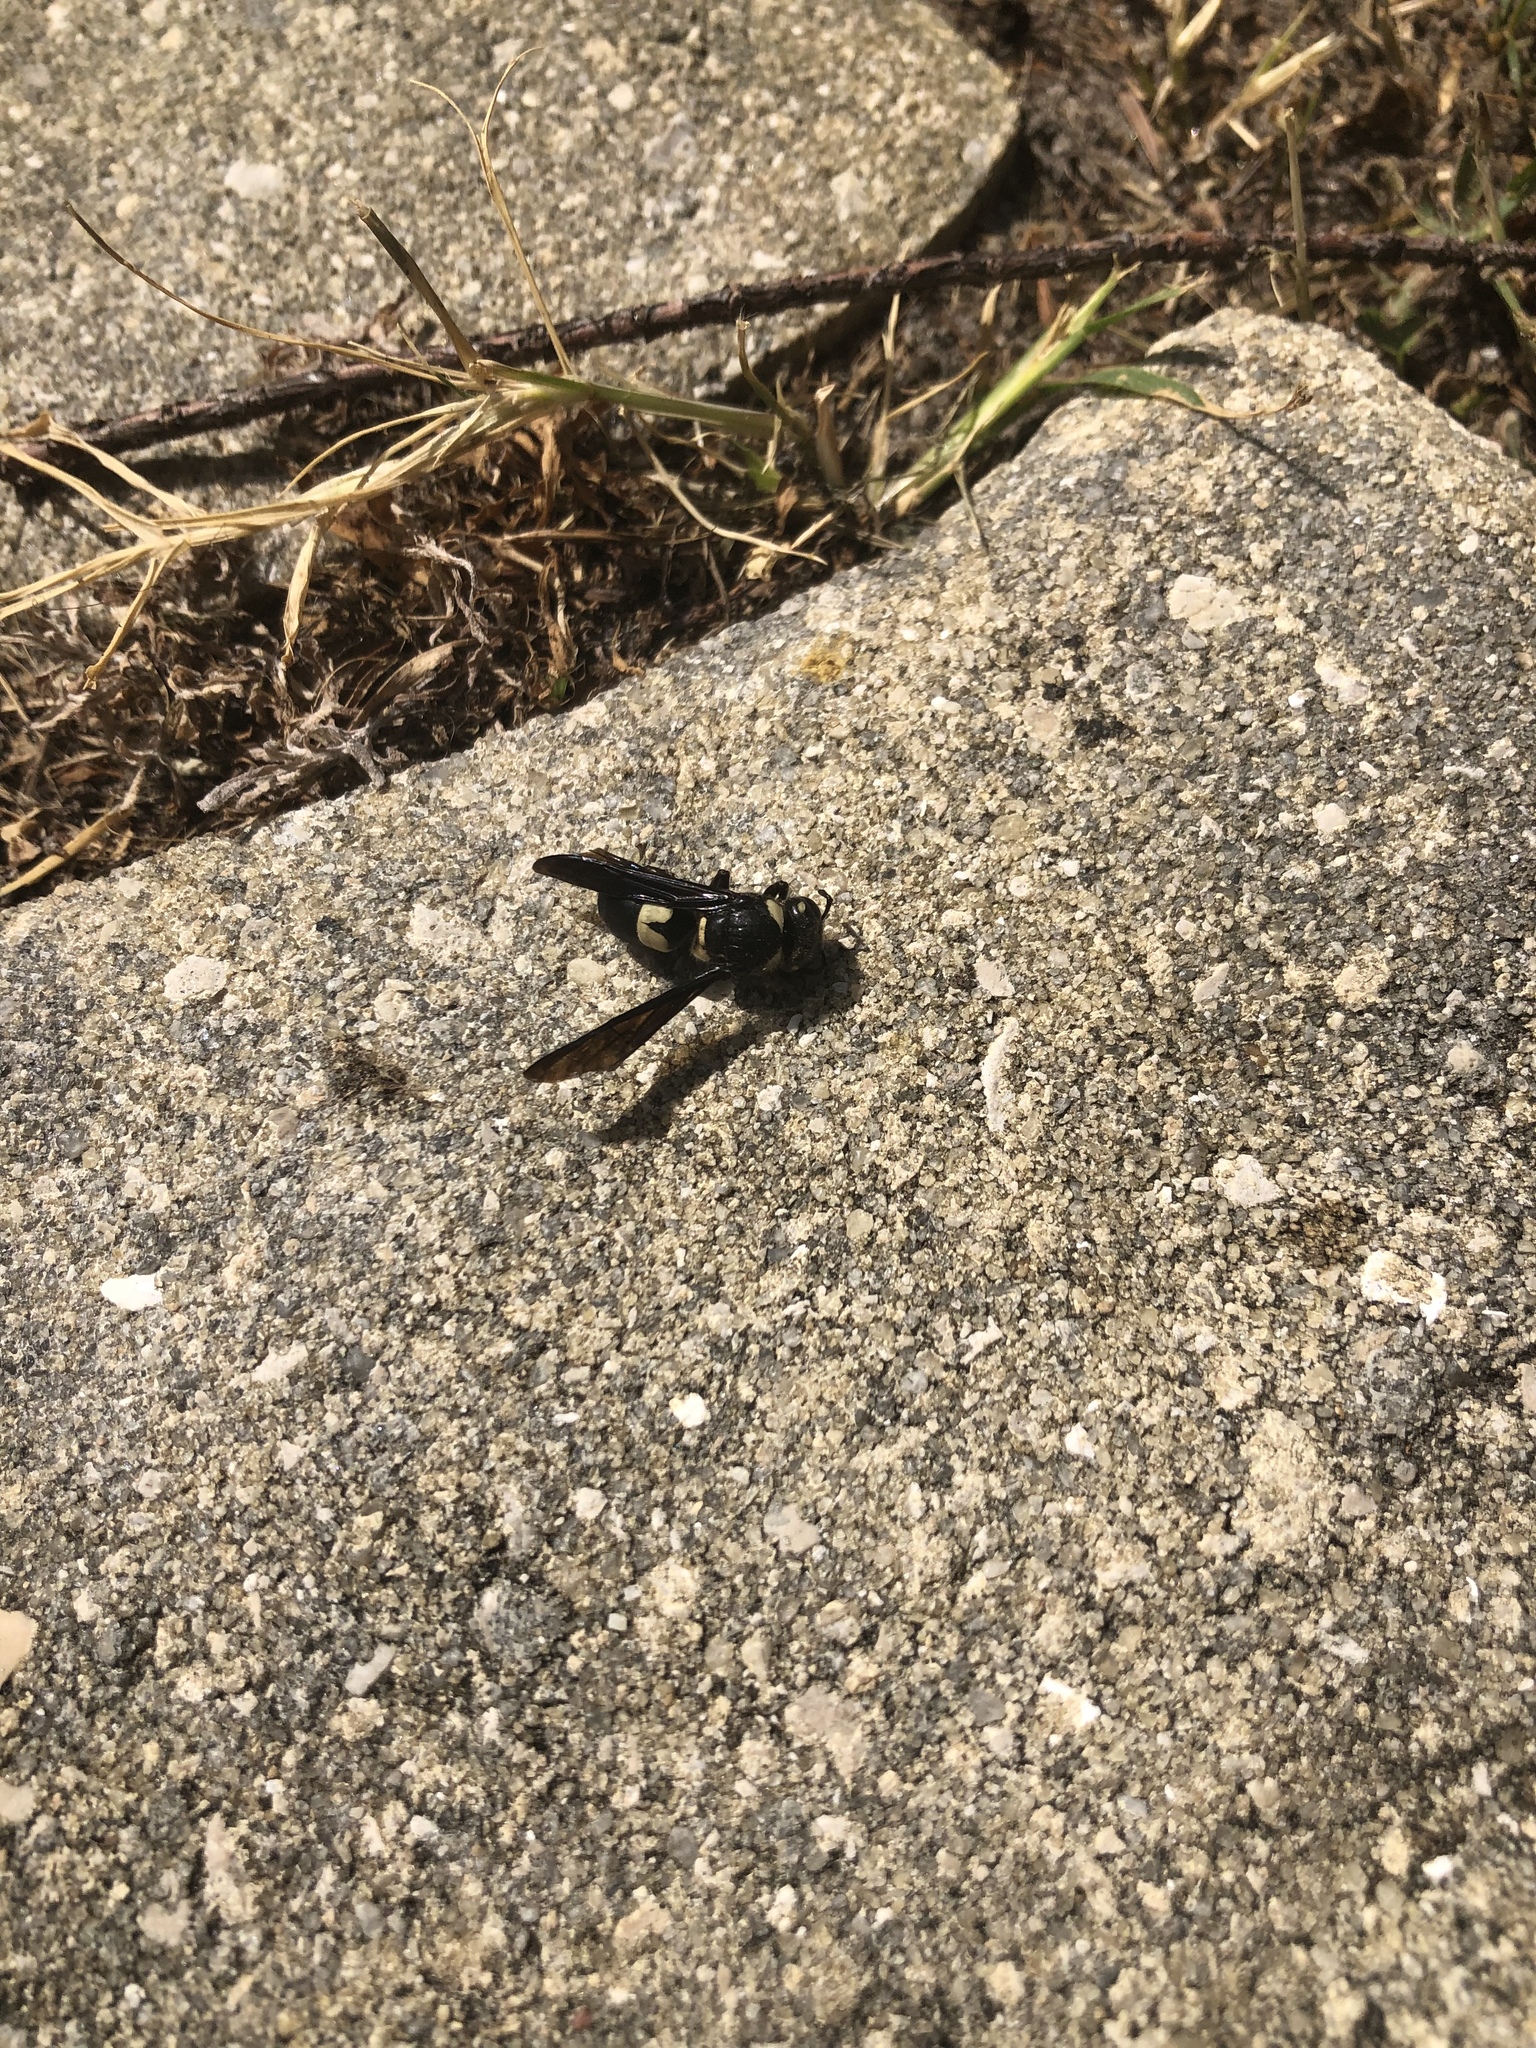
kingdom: Animalia
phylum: Arthropoda
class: Insecta
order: Hymenoptera
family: Eumenidae
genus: Euodynerus
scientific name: Euodynerus bidens
